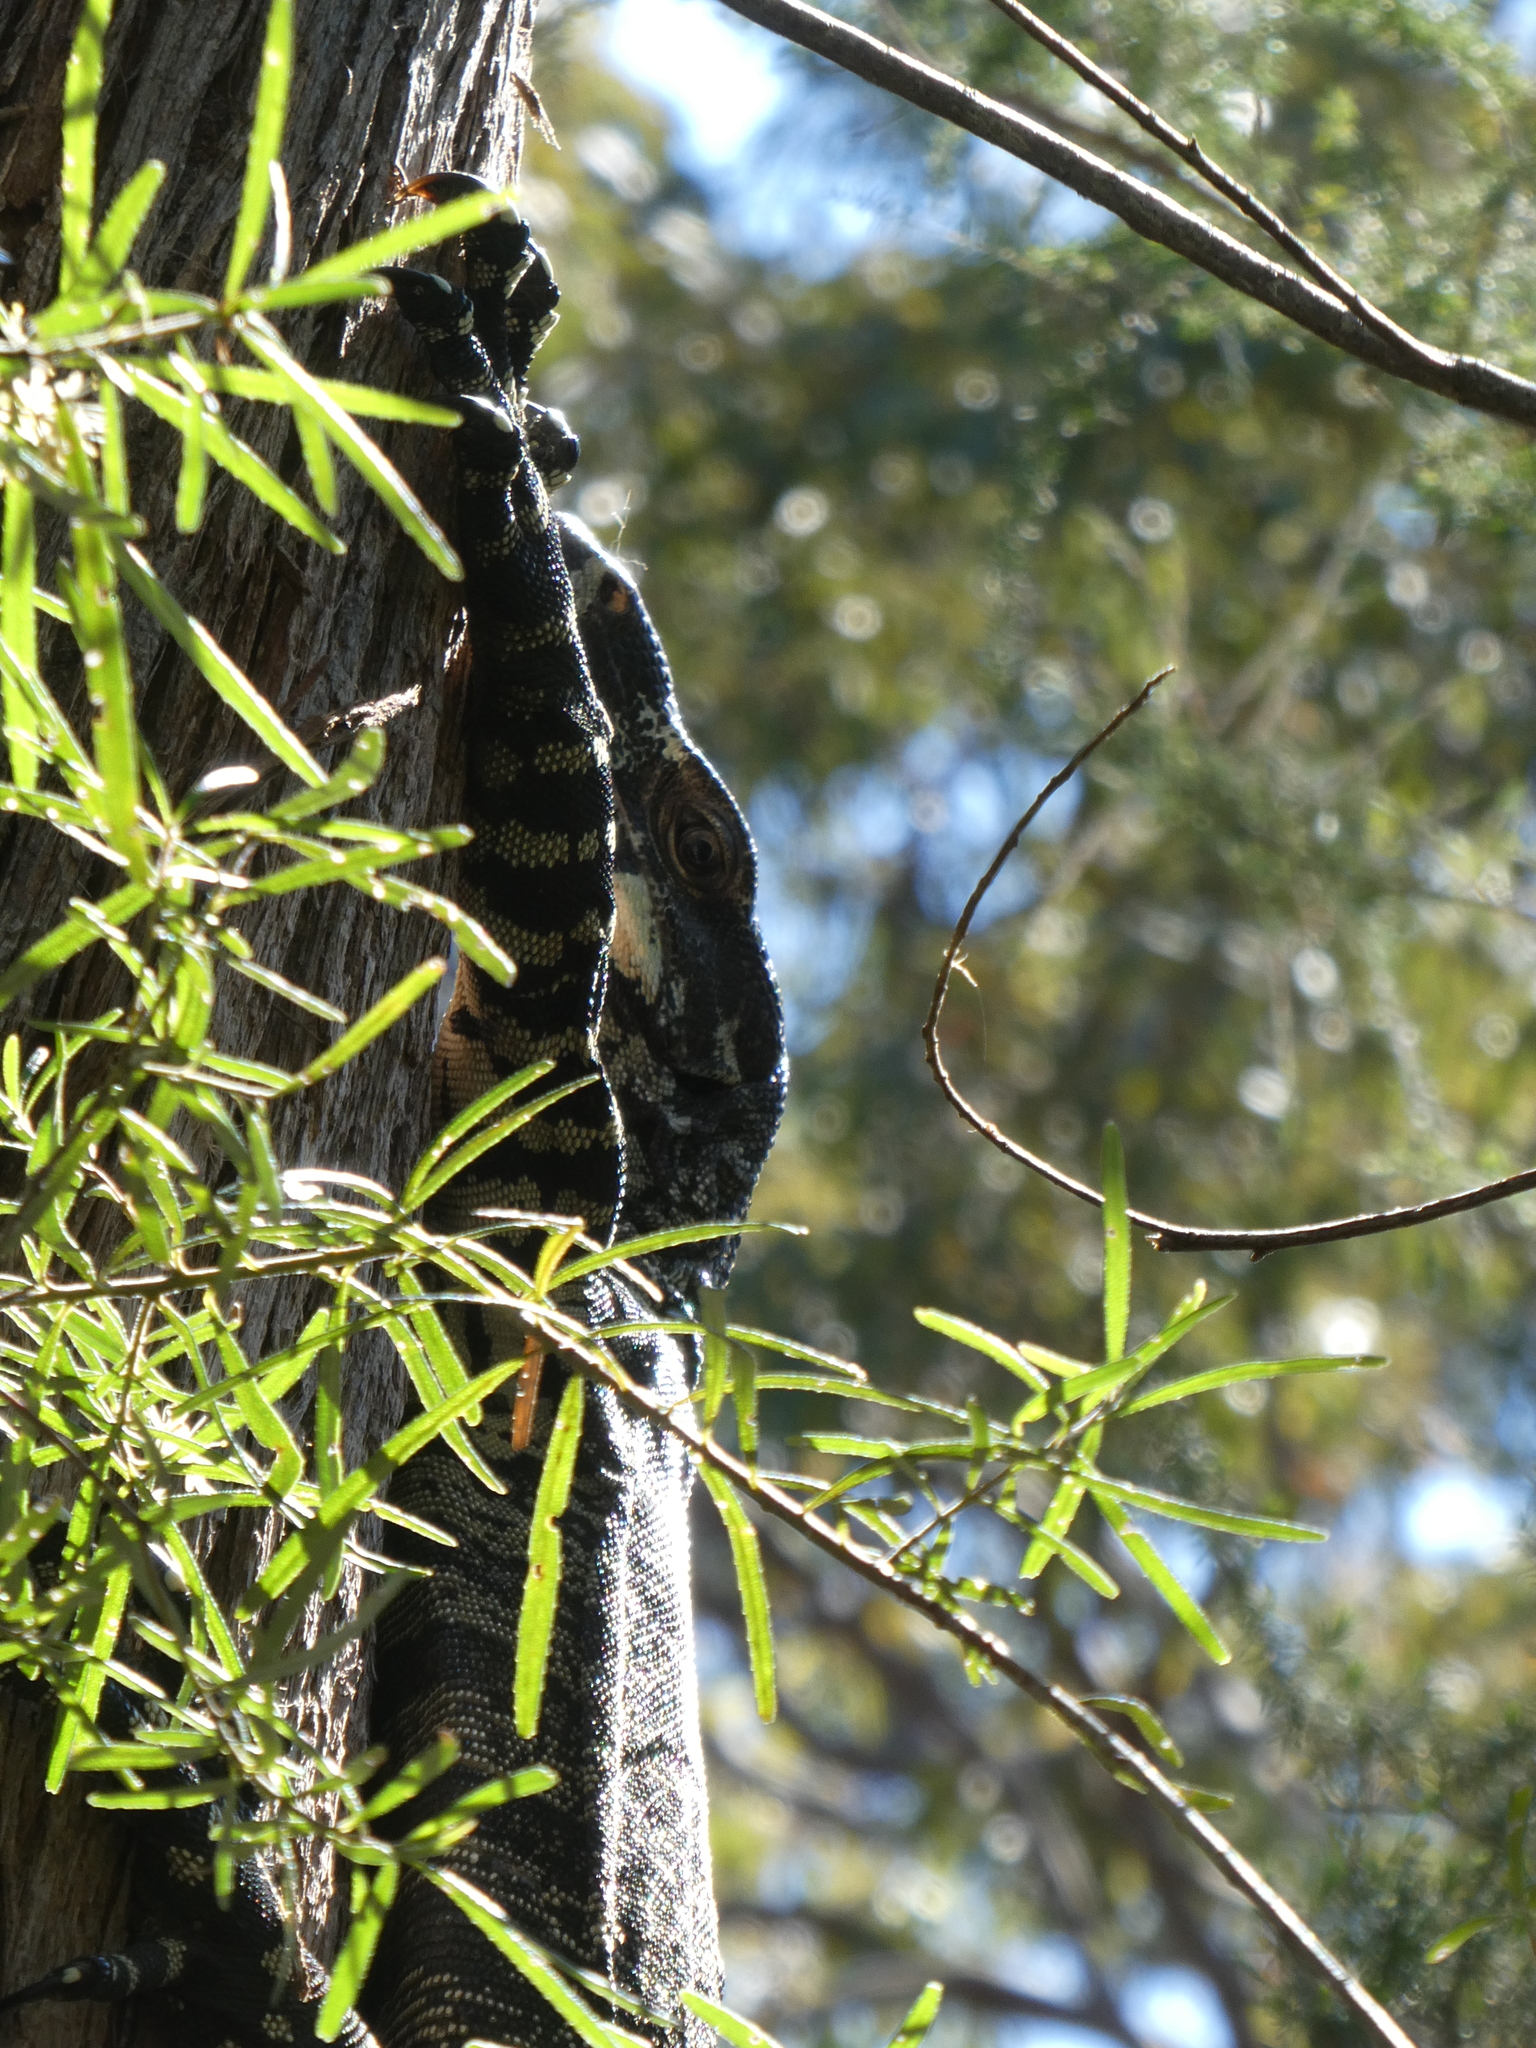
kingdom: Animalia
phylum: Chordata
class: Squamata
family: Varanidae
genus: Varanus
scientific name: Varanus varius
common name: Lace monitor
